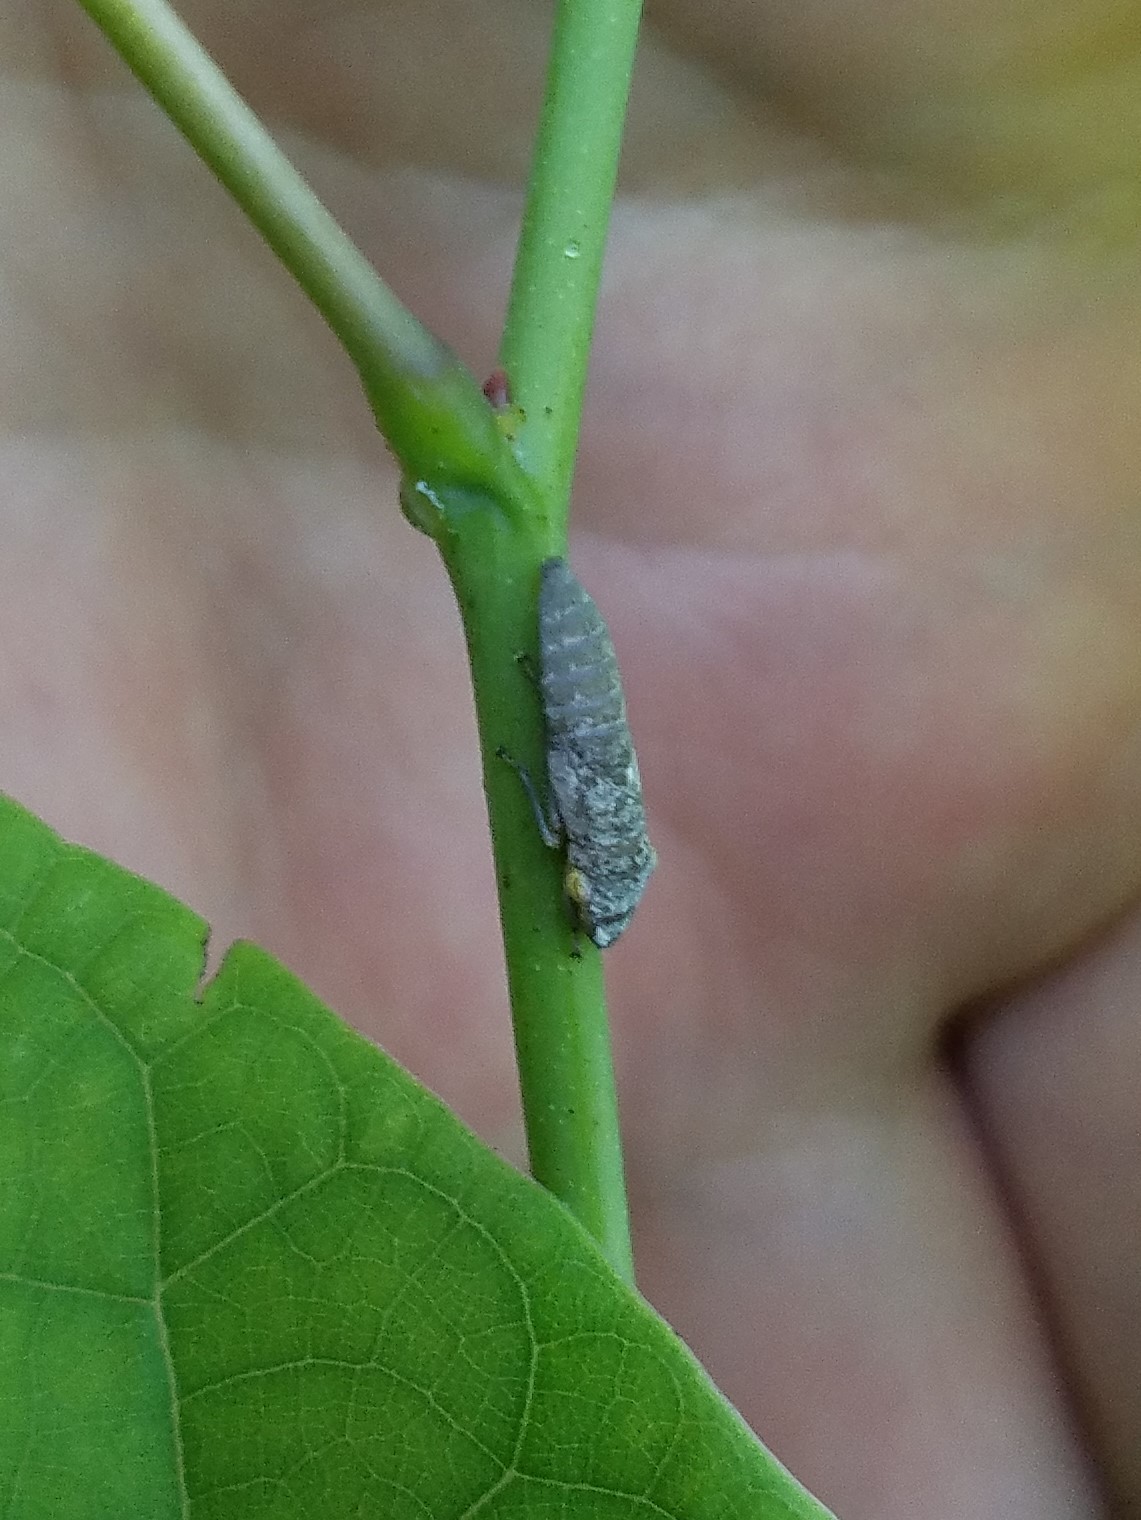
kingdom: Animalia
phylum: Arthropoda
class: Insecta
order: Hemiptera
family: Cicadellidae
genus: Homalodisca
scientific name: Homalodisca vitripennis
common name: Glassy-winged sharpshooter
